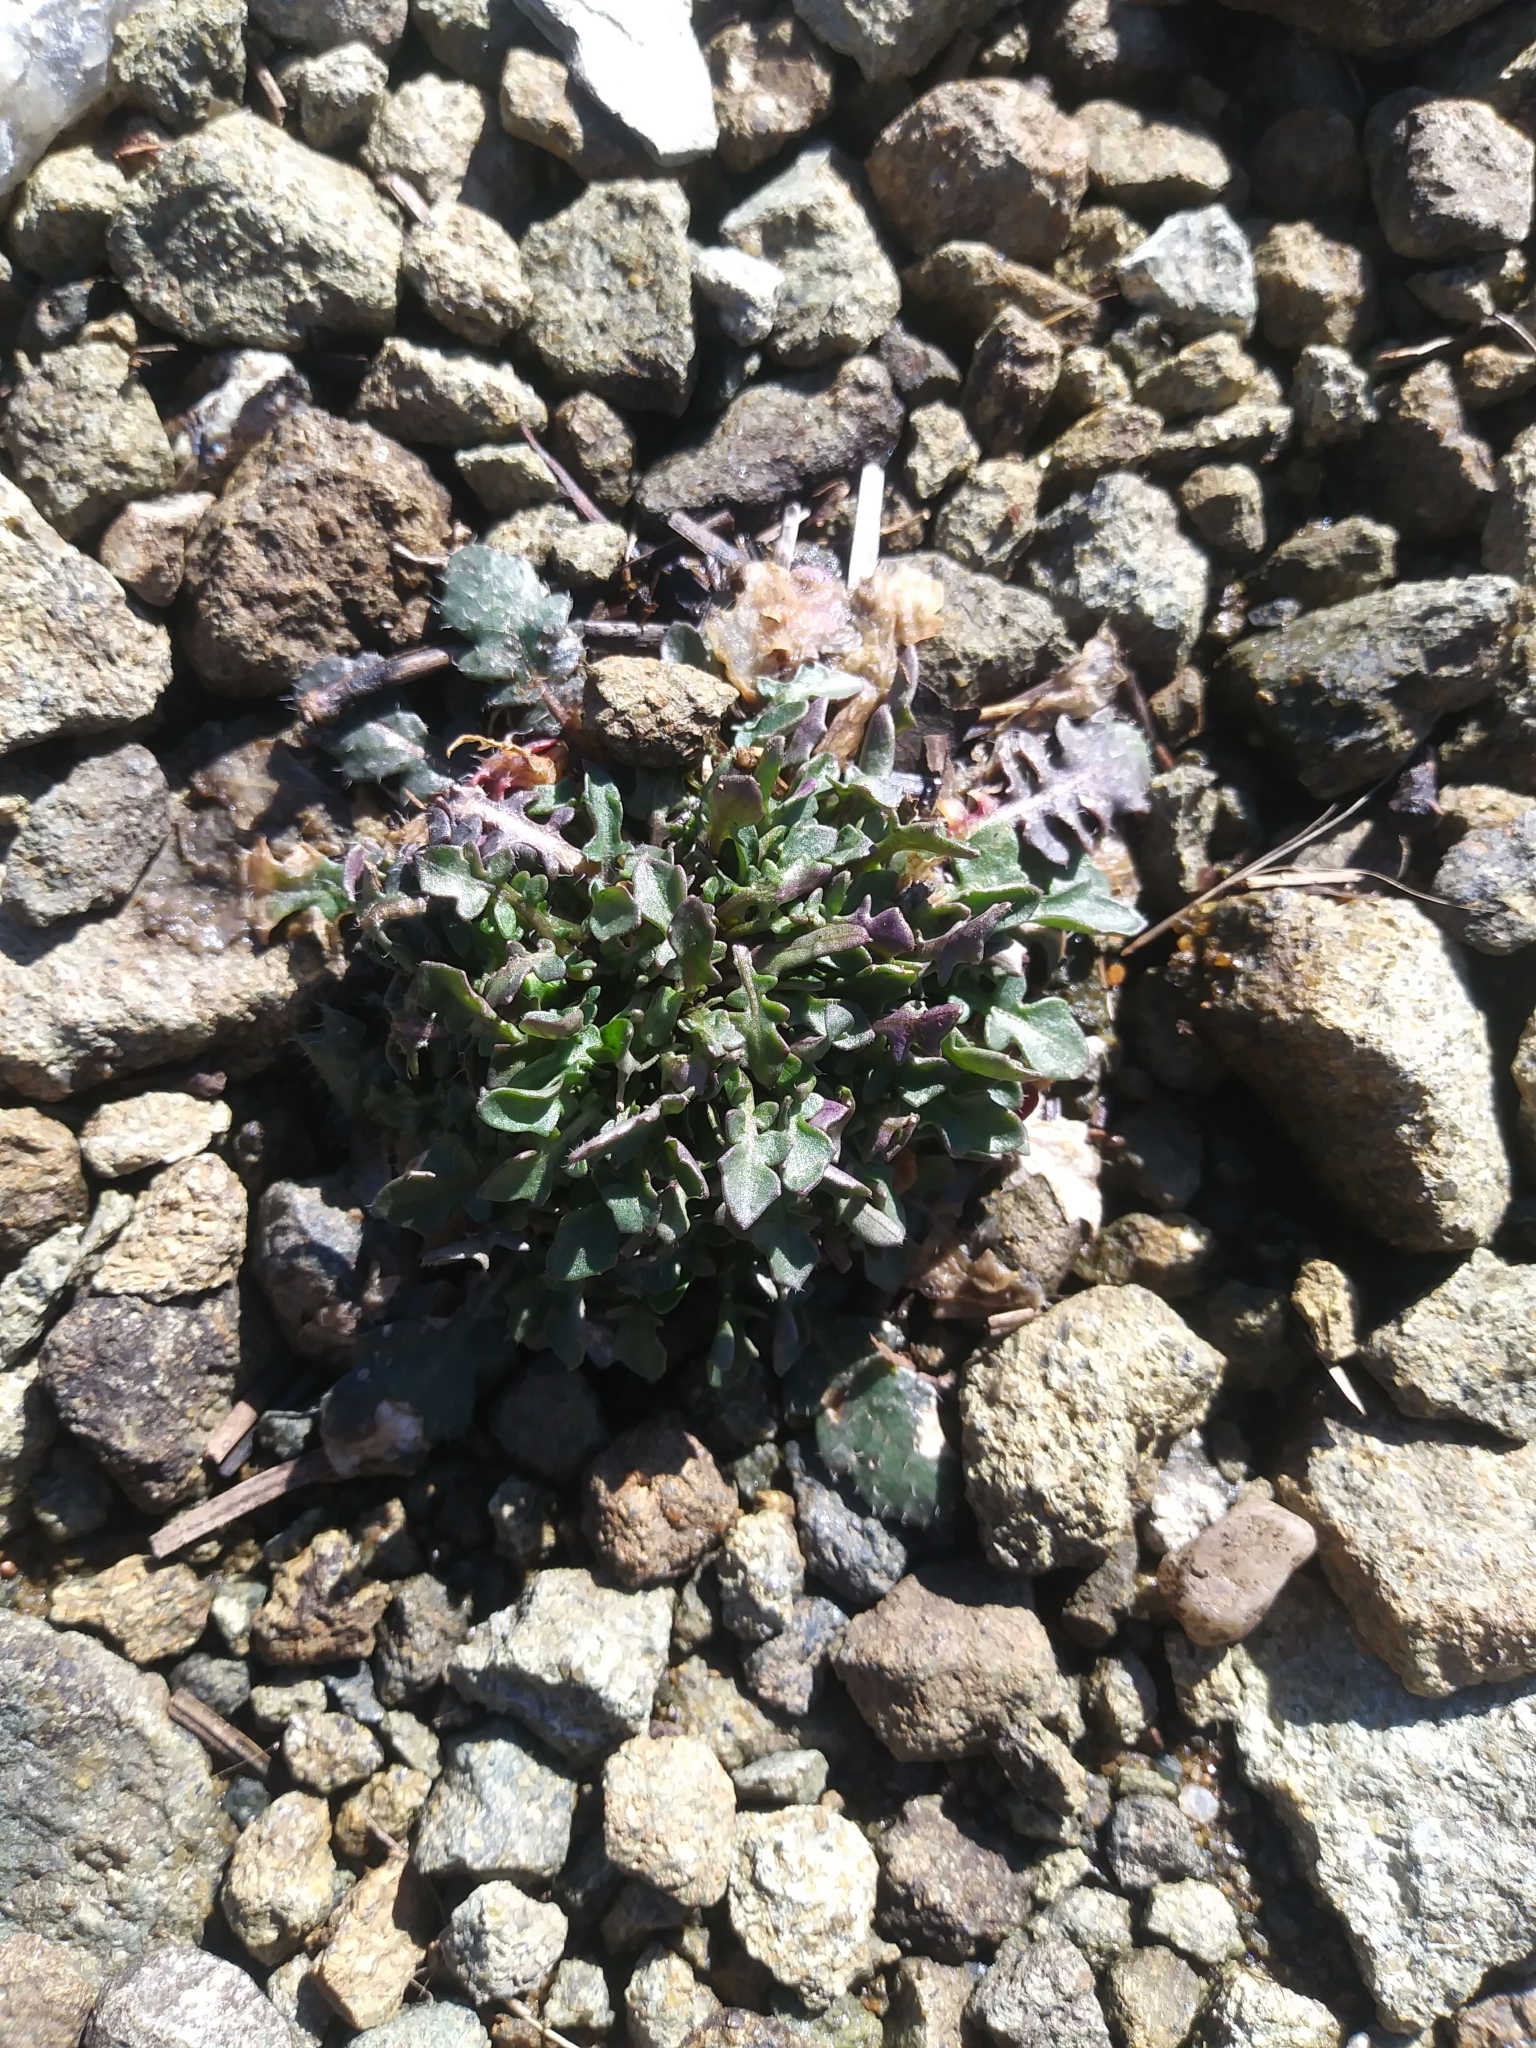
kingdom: Plantae
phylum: Tracheophyta
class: Magnoliopsida
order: Brassicales
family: Brassicaceae
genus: Arabidopsis
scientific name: Arabidopsis lyrata
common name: Lyrate rockcress
